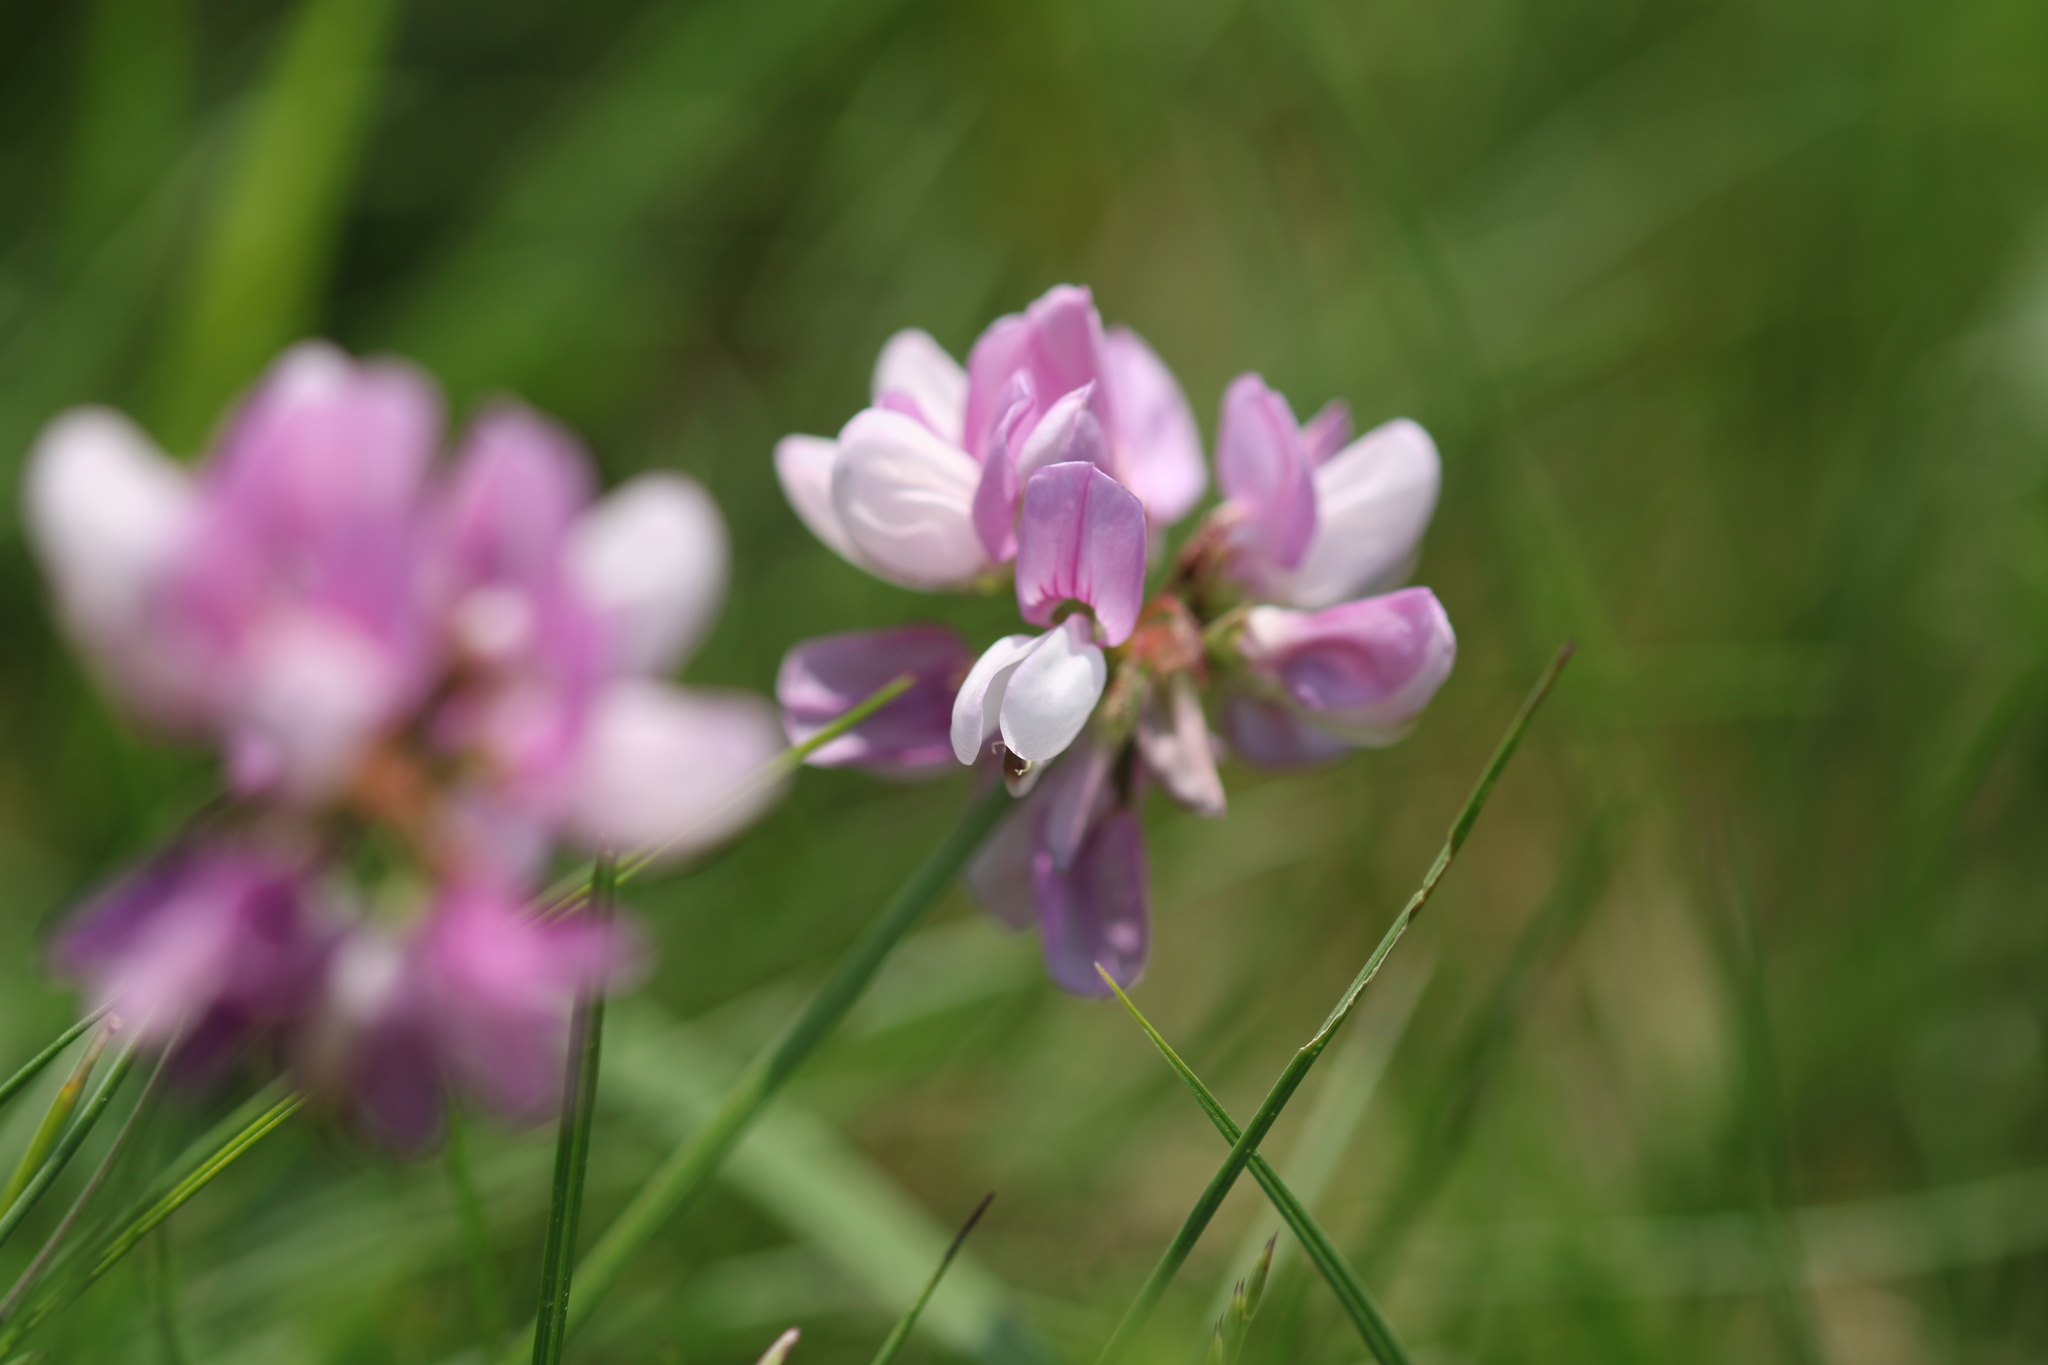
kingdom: Plantae
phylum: Tracheophyta
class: Magnoliopsida
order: Fabales
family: Fabaceae
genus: Coronilla
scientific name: Coronilla varia
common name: Crownvetch
